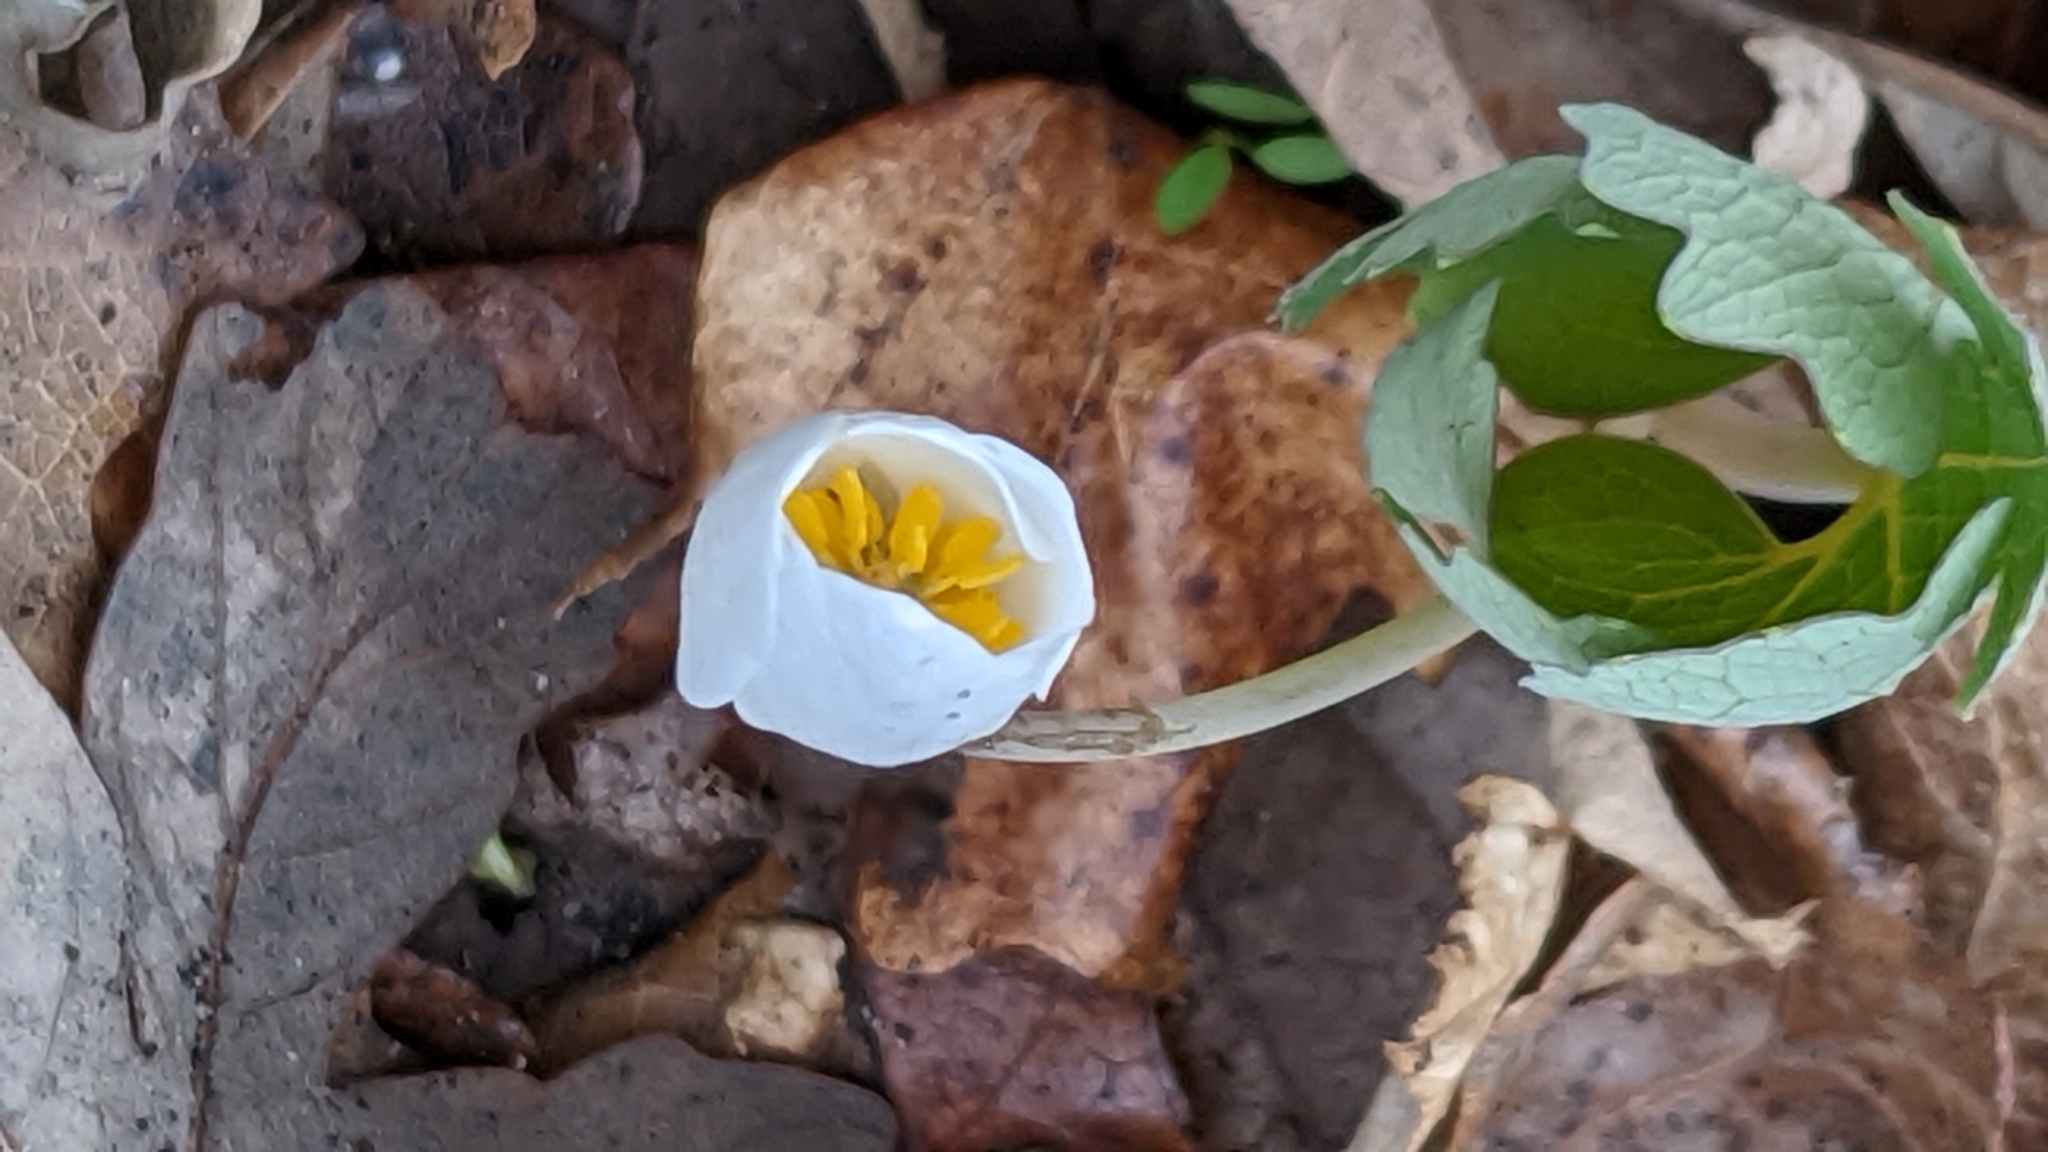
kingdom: Plantae
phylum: Tracheophyta
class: Magnoliopsida
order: Ranunculales
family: Papaveraceae
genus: Sanguinaria
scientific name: Sanguinaria canadensis
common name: Bloodroot
